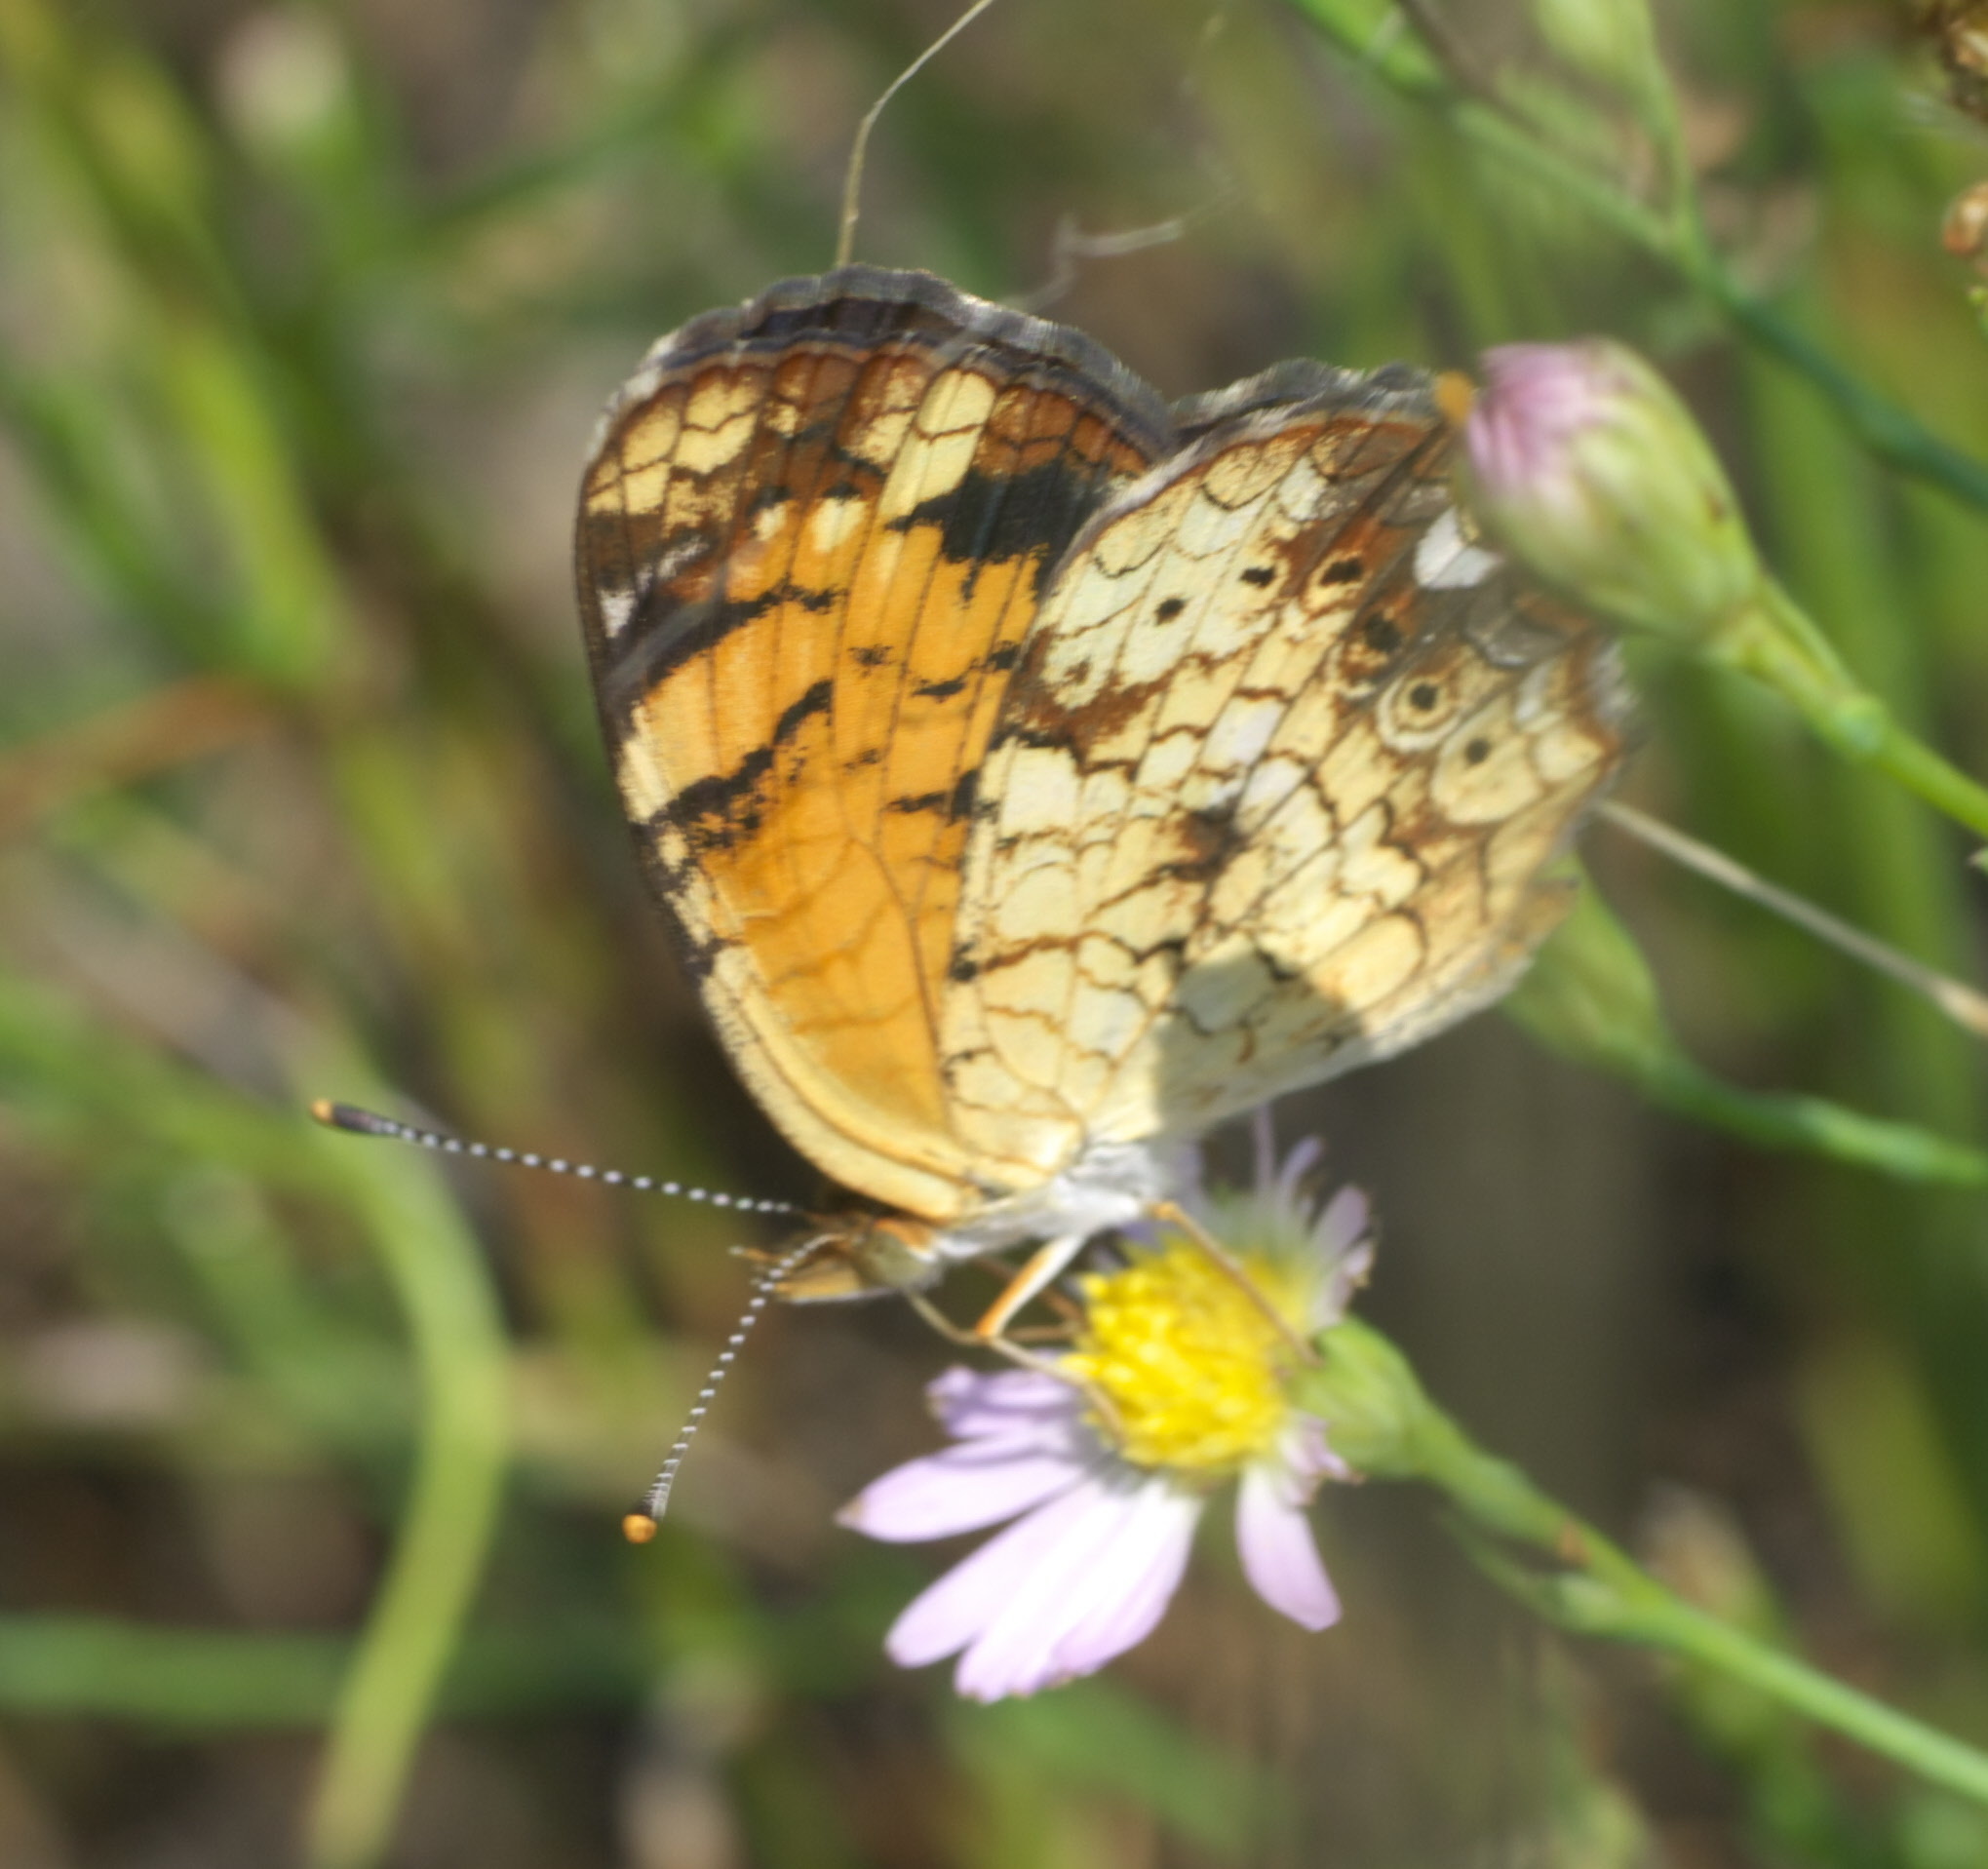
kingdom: Animalia
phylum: Arthropoda
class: Insecta
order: Lepidoptera
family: Nymphalidae
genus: Phyciodes
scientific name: Phyciodes tharos
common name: Pearl crescent
